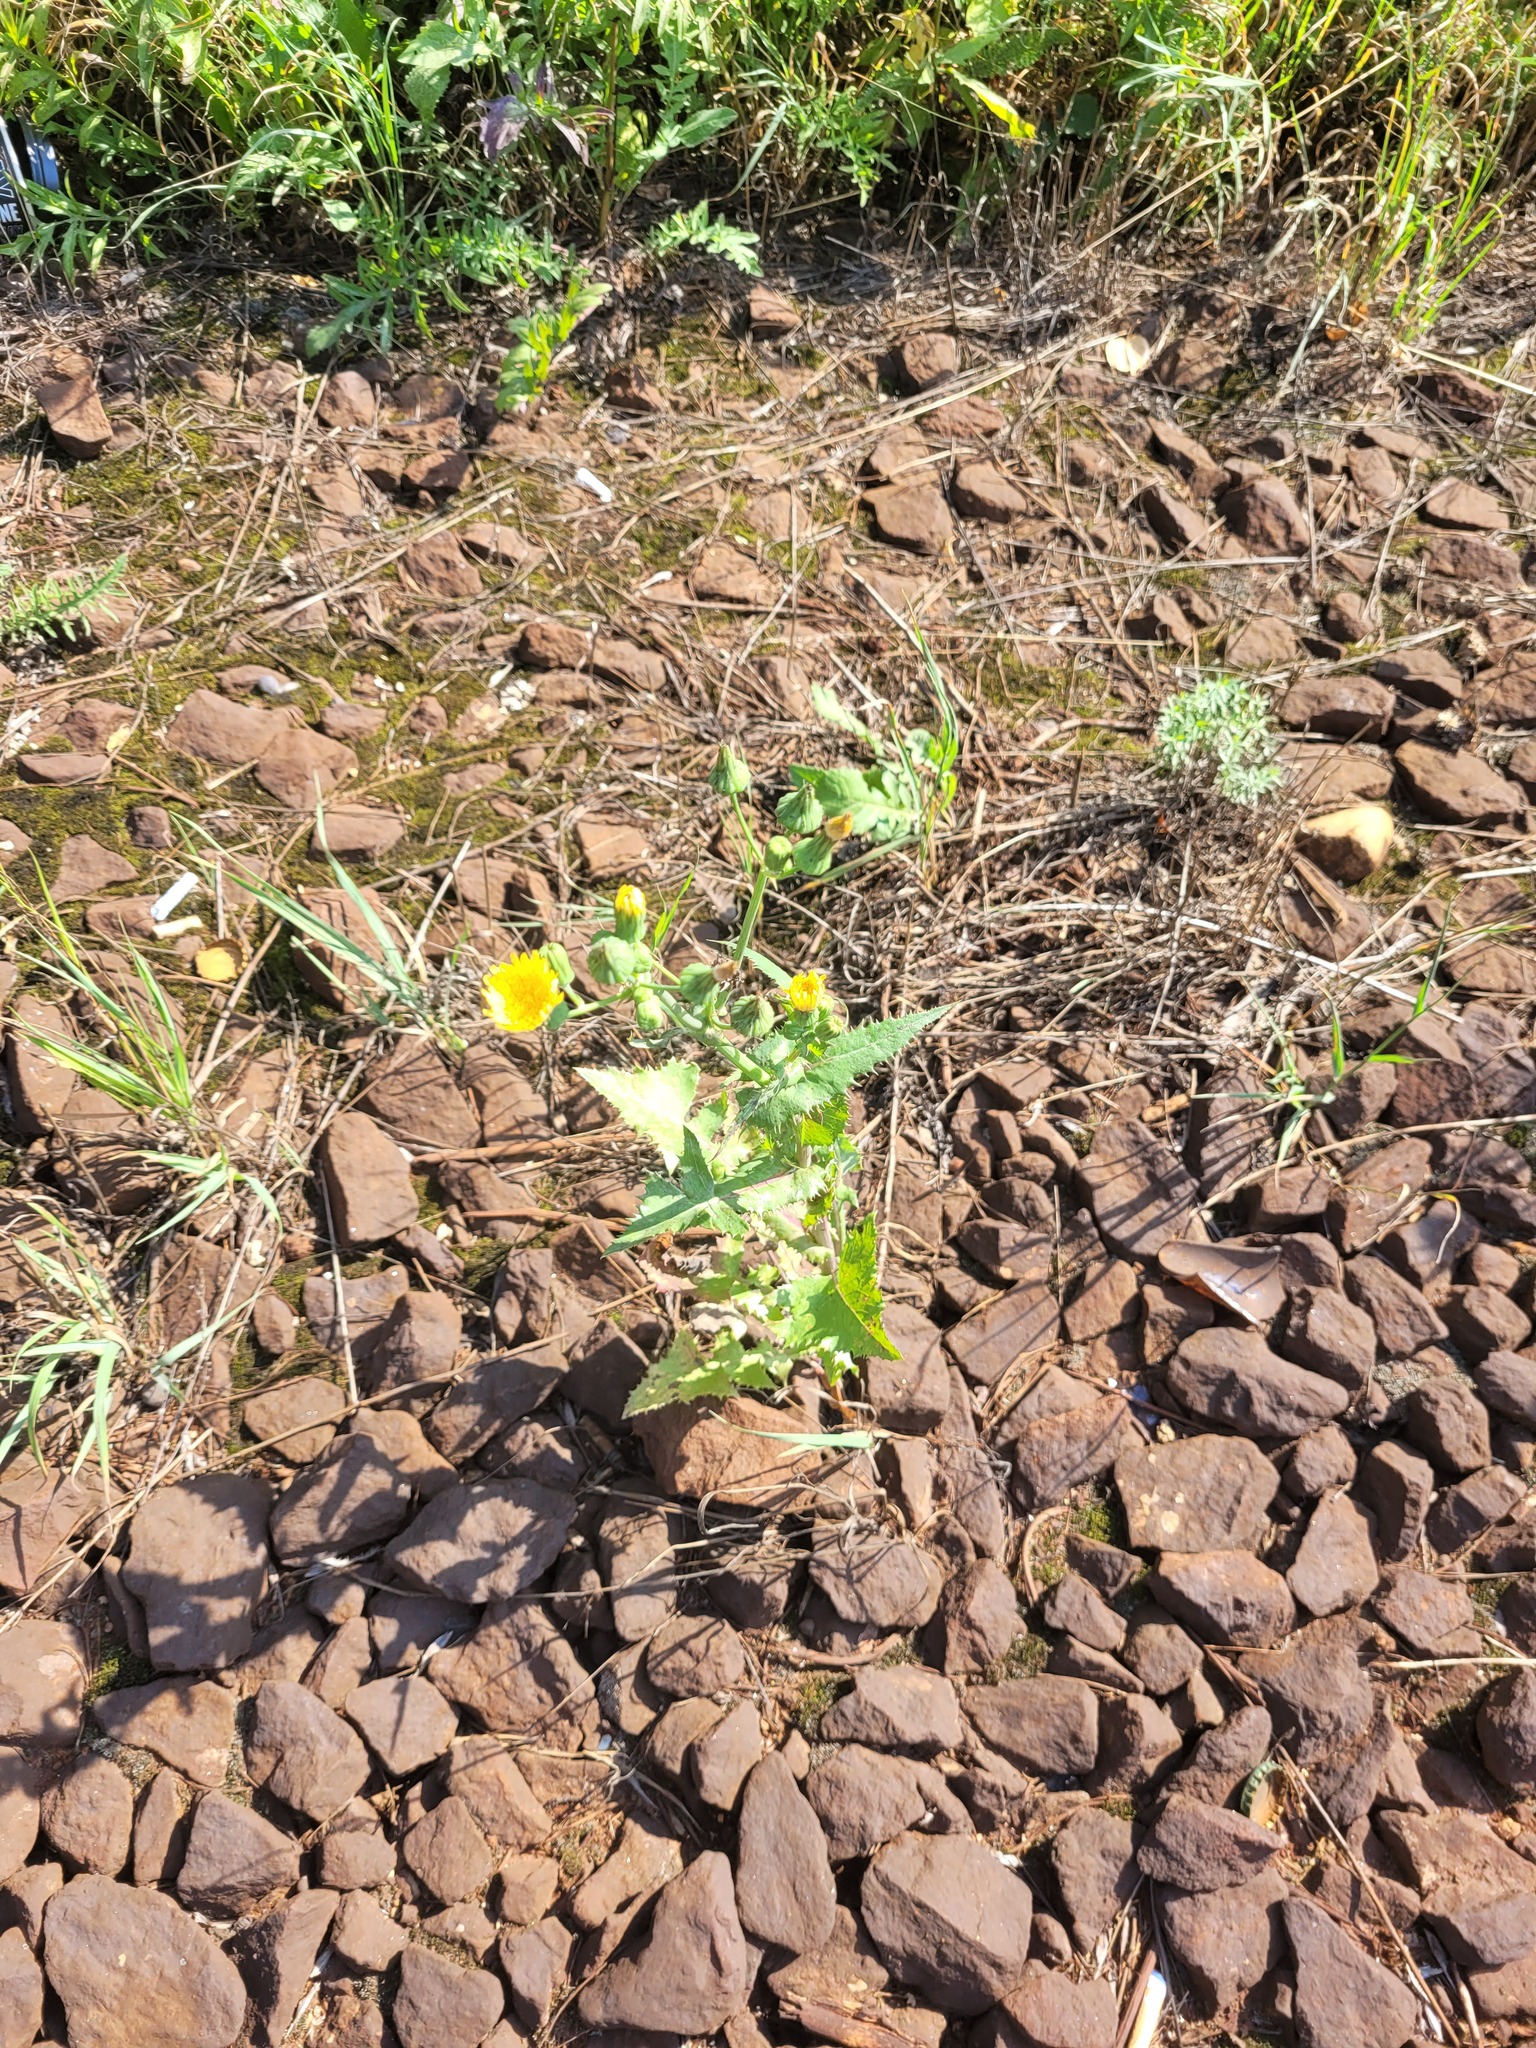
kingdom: Plantae
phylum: Tracheophyta
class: Magnoliopsida
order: Asterales
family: Asteraceae
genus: Sonchus
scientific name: Sonchus oleraceus
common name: Common sowthistle
